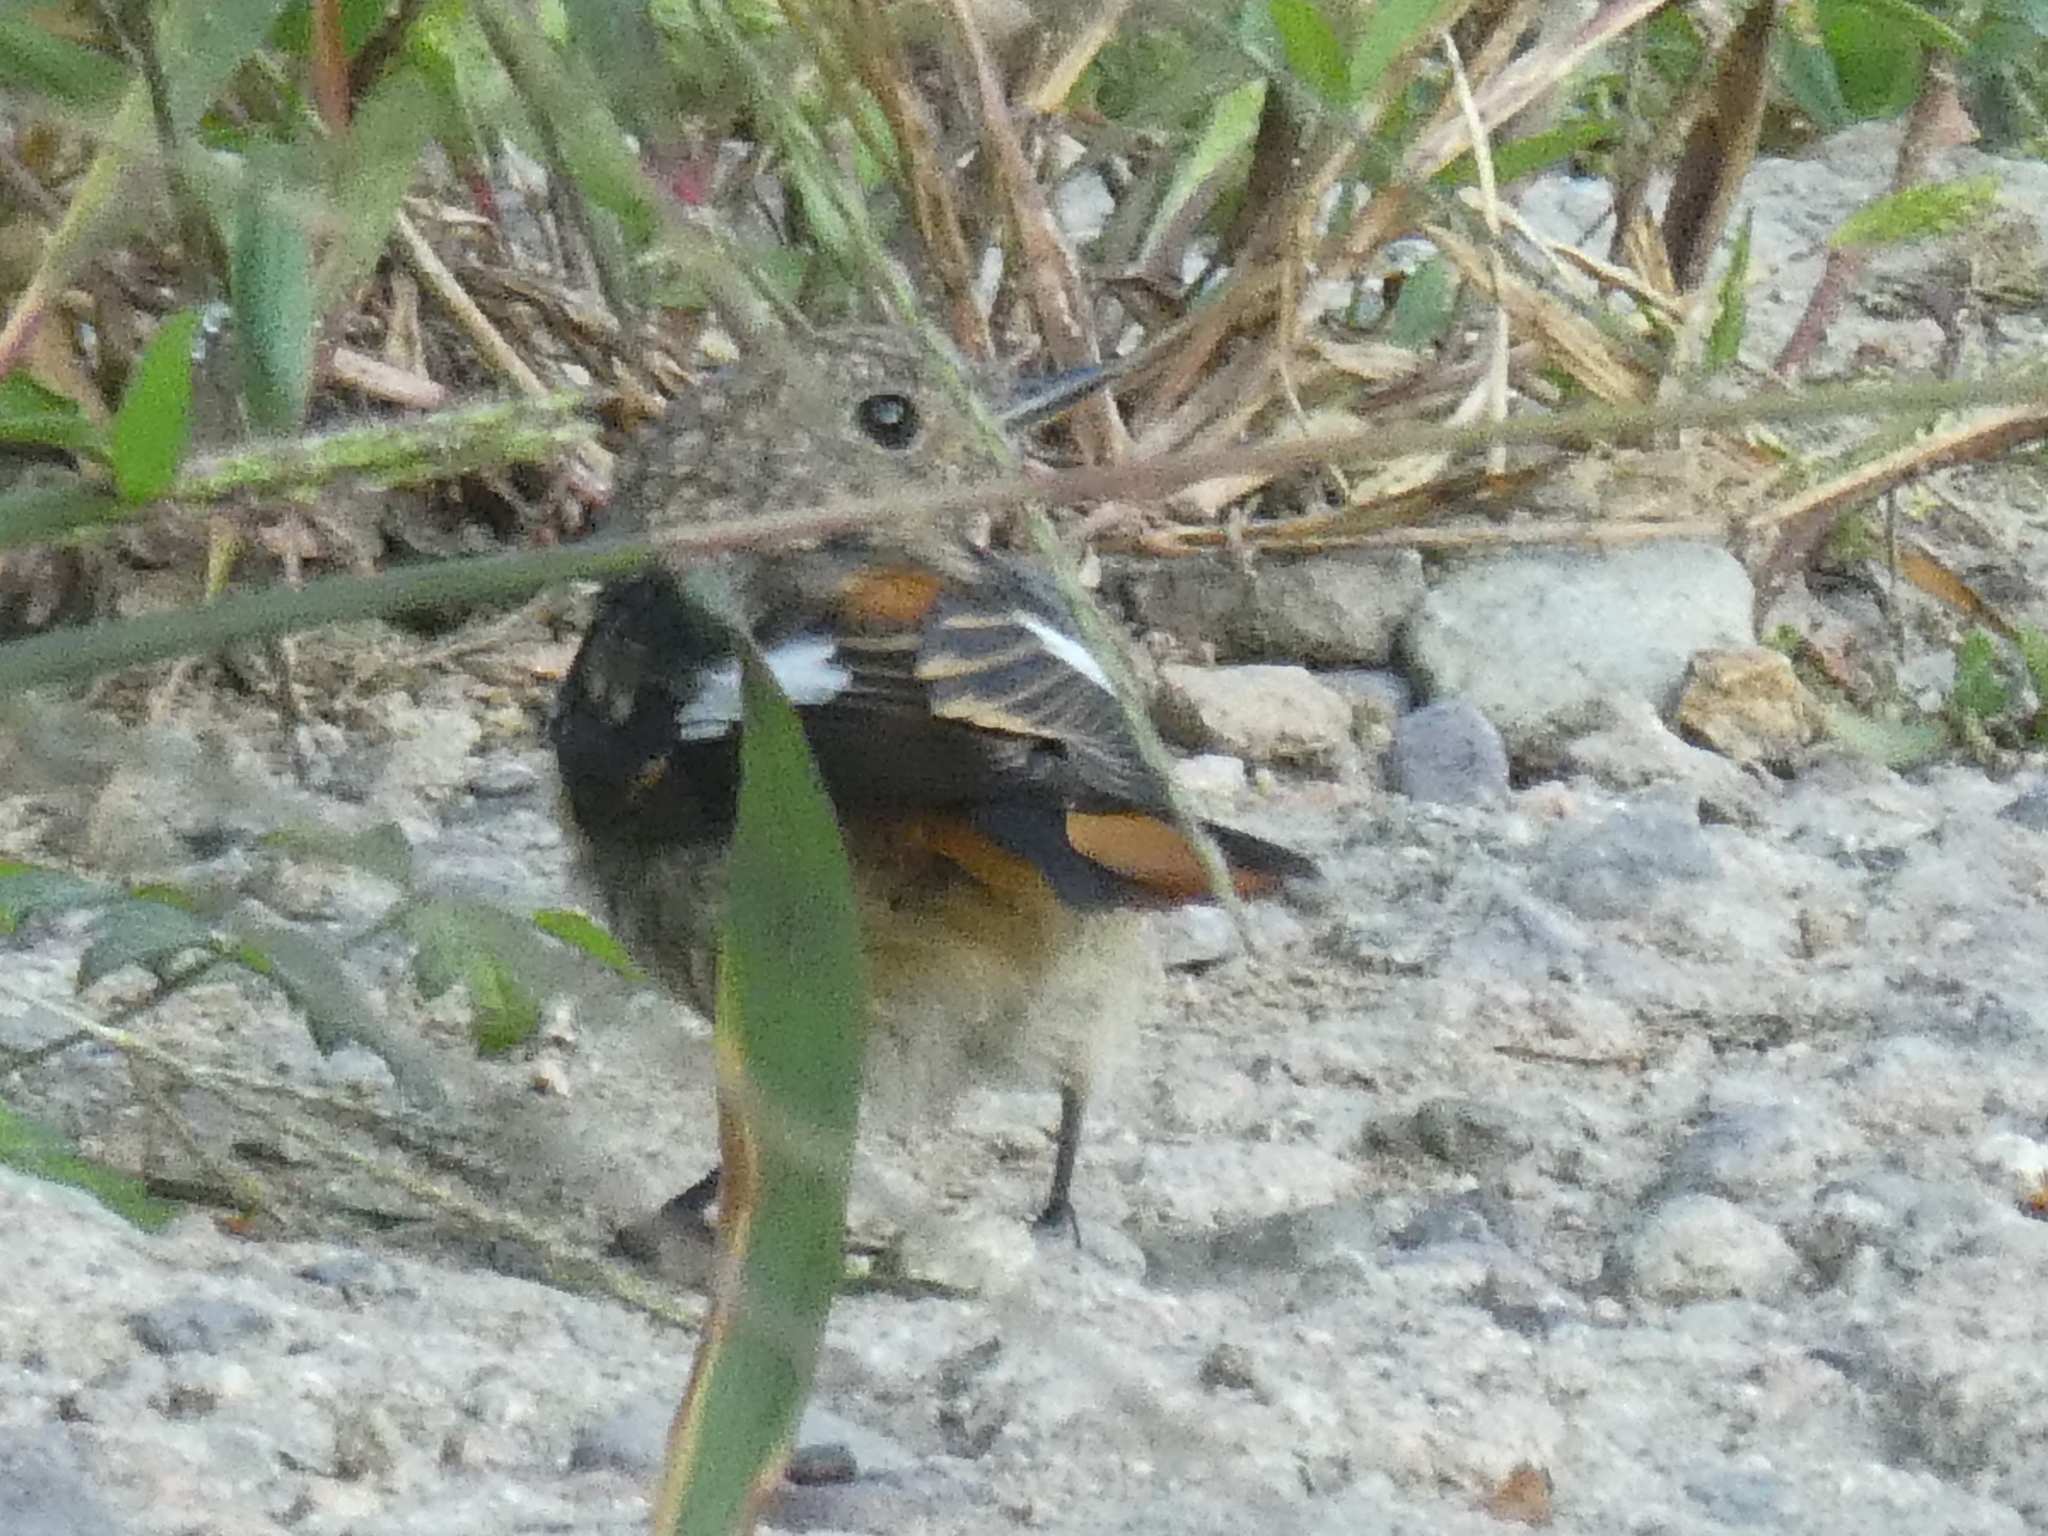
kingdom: Animalia
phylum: Chordata
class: Aves
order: Passeriformes
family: Muscicapidae
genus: Phoenicurus
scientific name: Phoenicurus auroreus
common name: Daurian redstart
